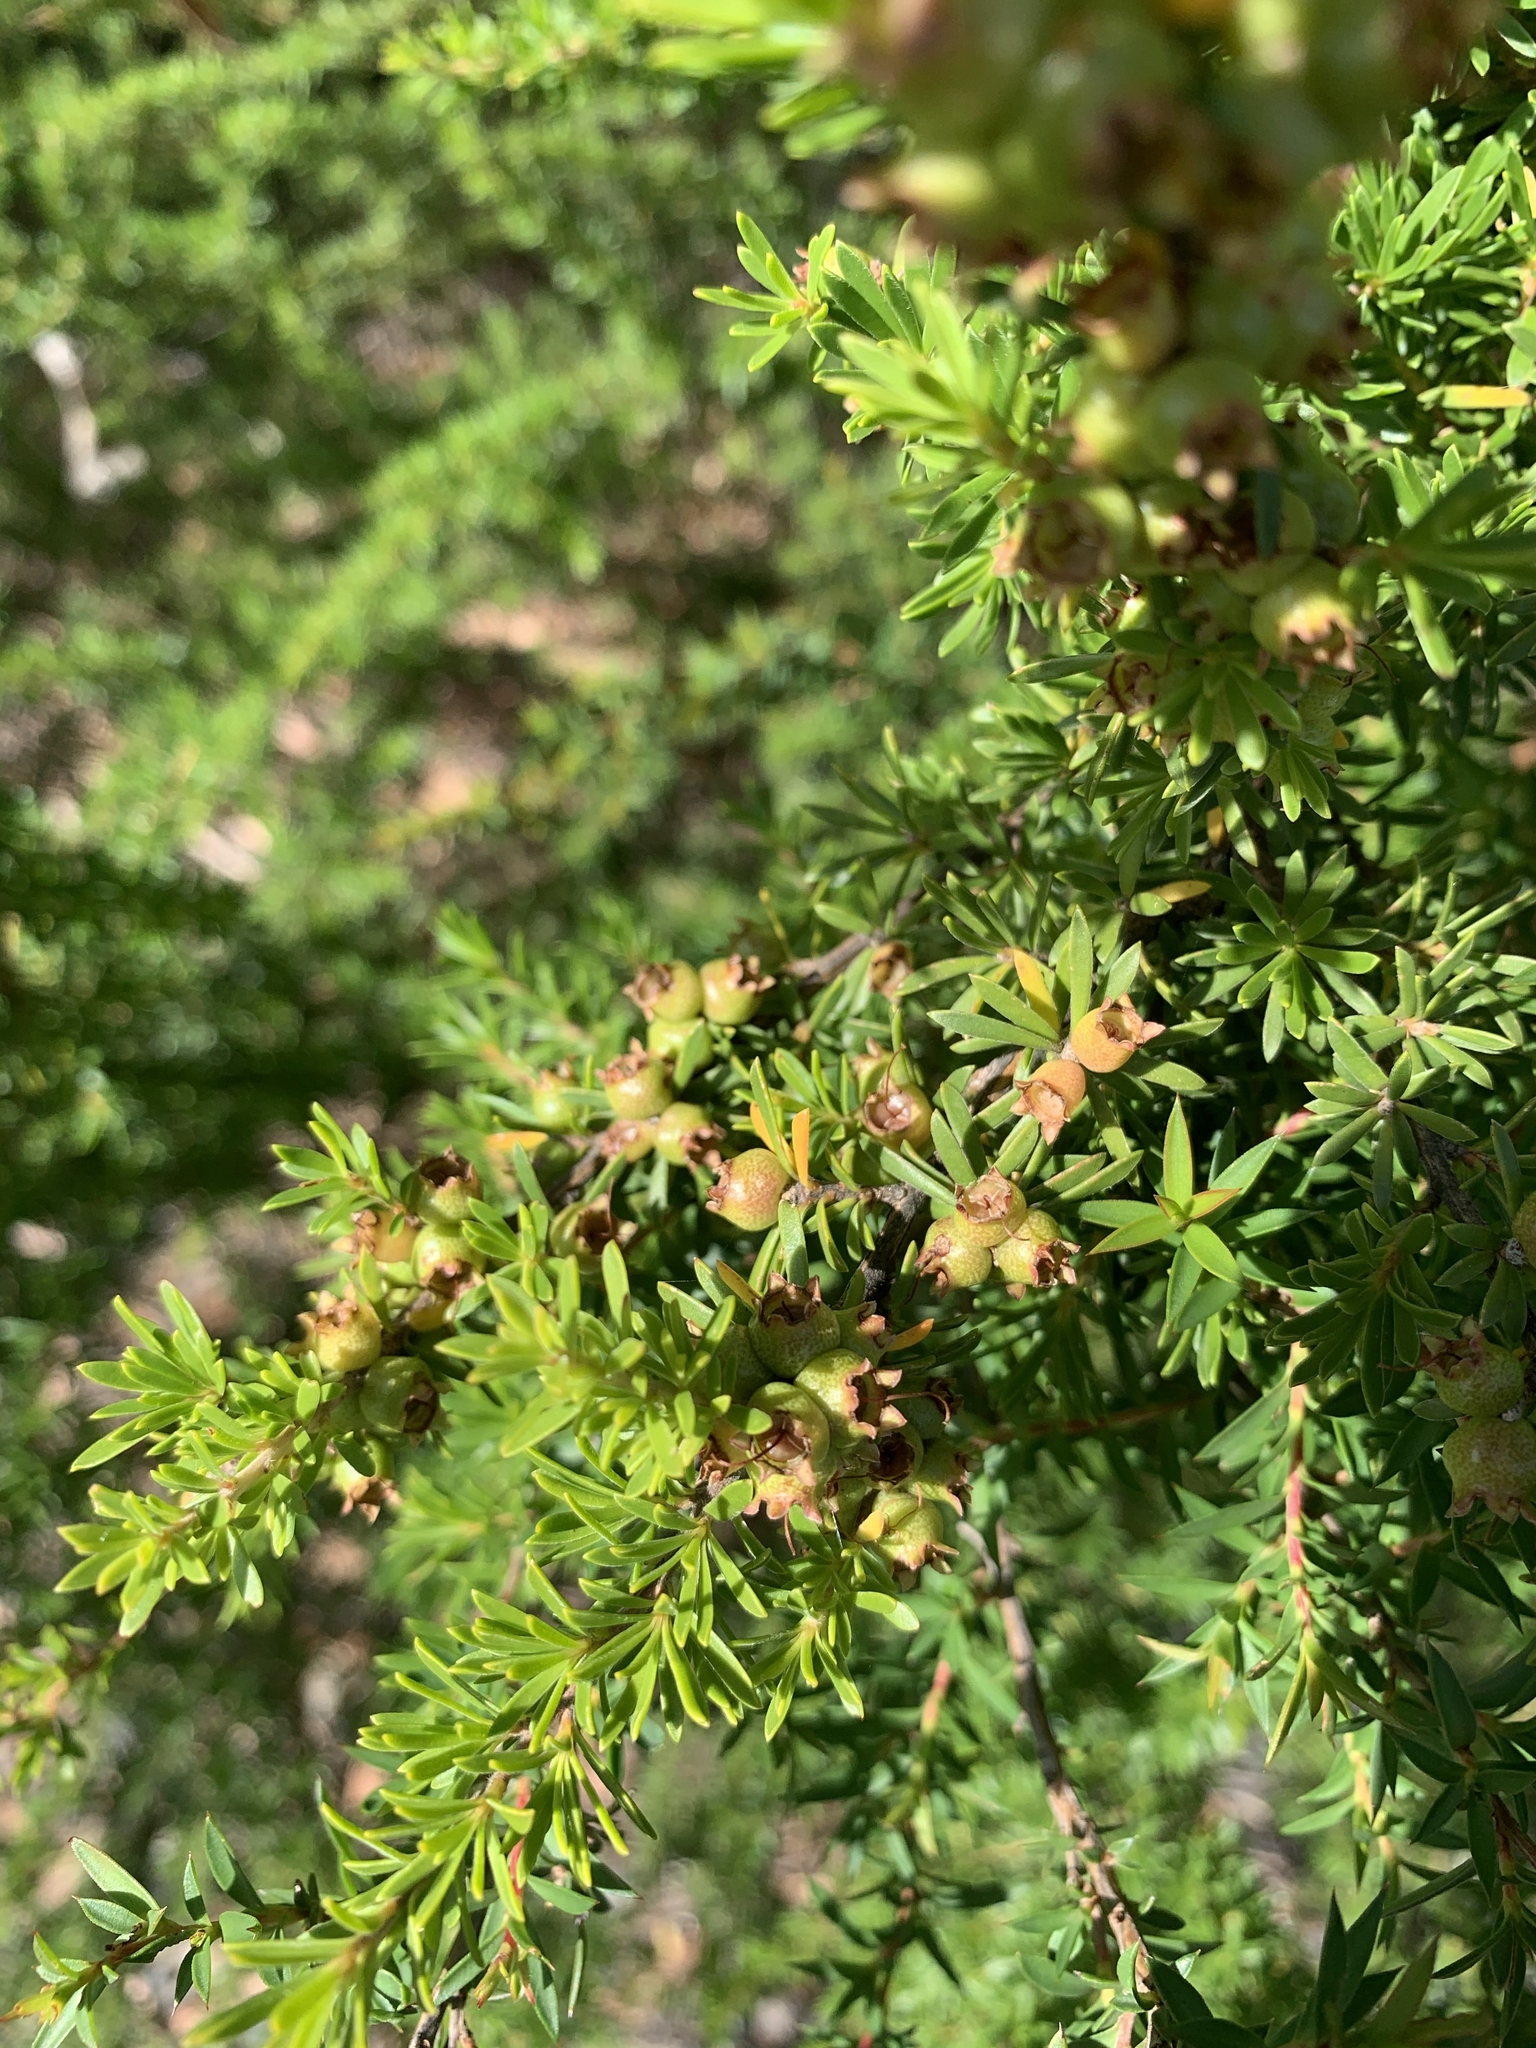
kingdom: Plantae
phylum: Tracheophyta
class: Magnoliopsida
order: Myrtales
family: Myrtaceae
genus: Kunzea
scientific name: Kunzea ambigua
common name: Tickbush
